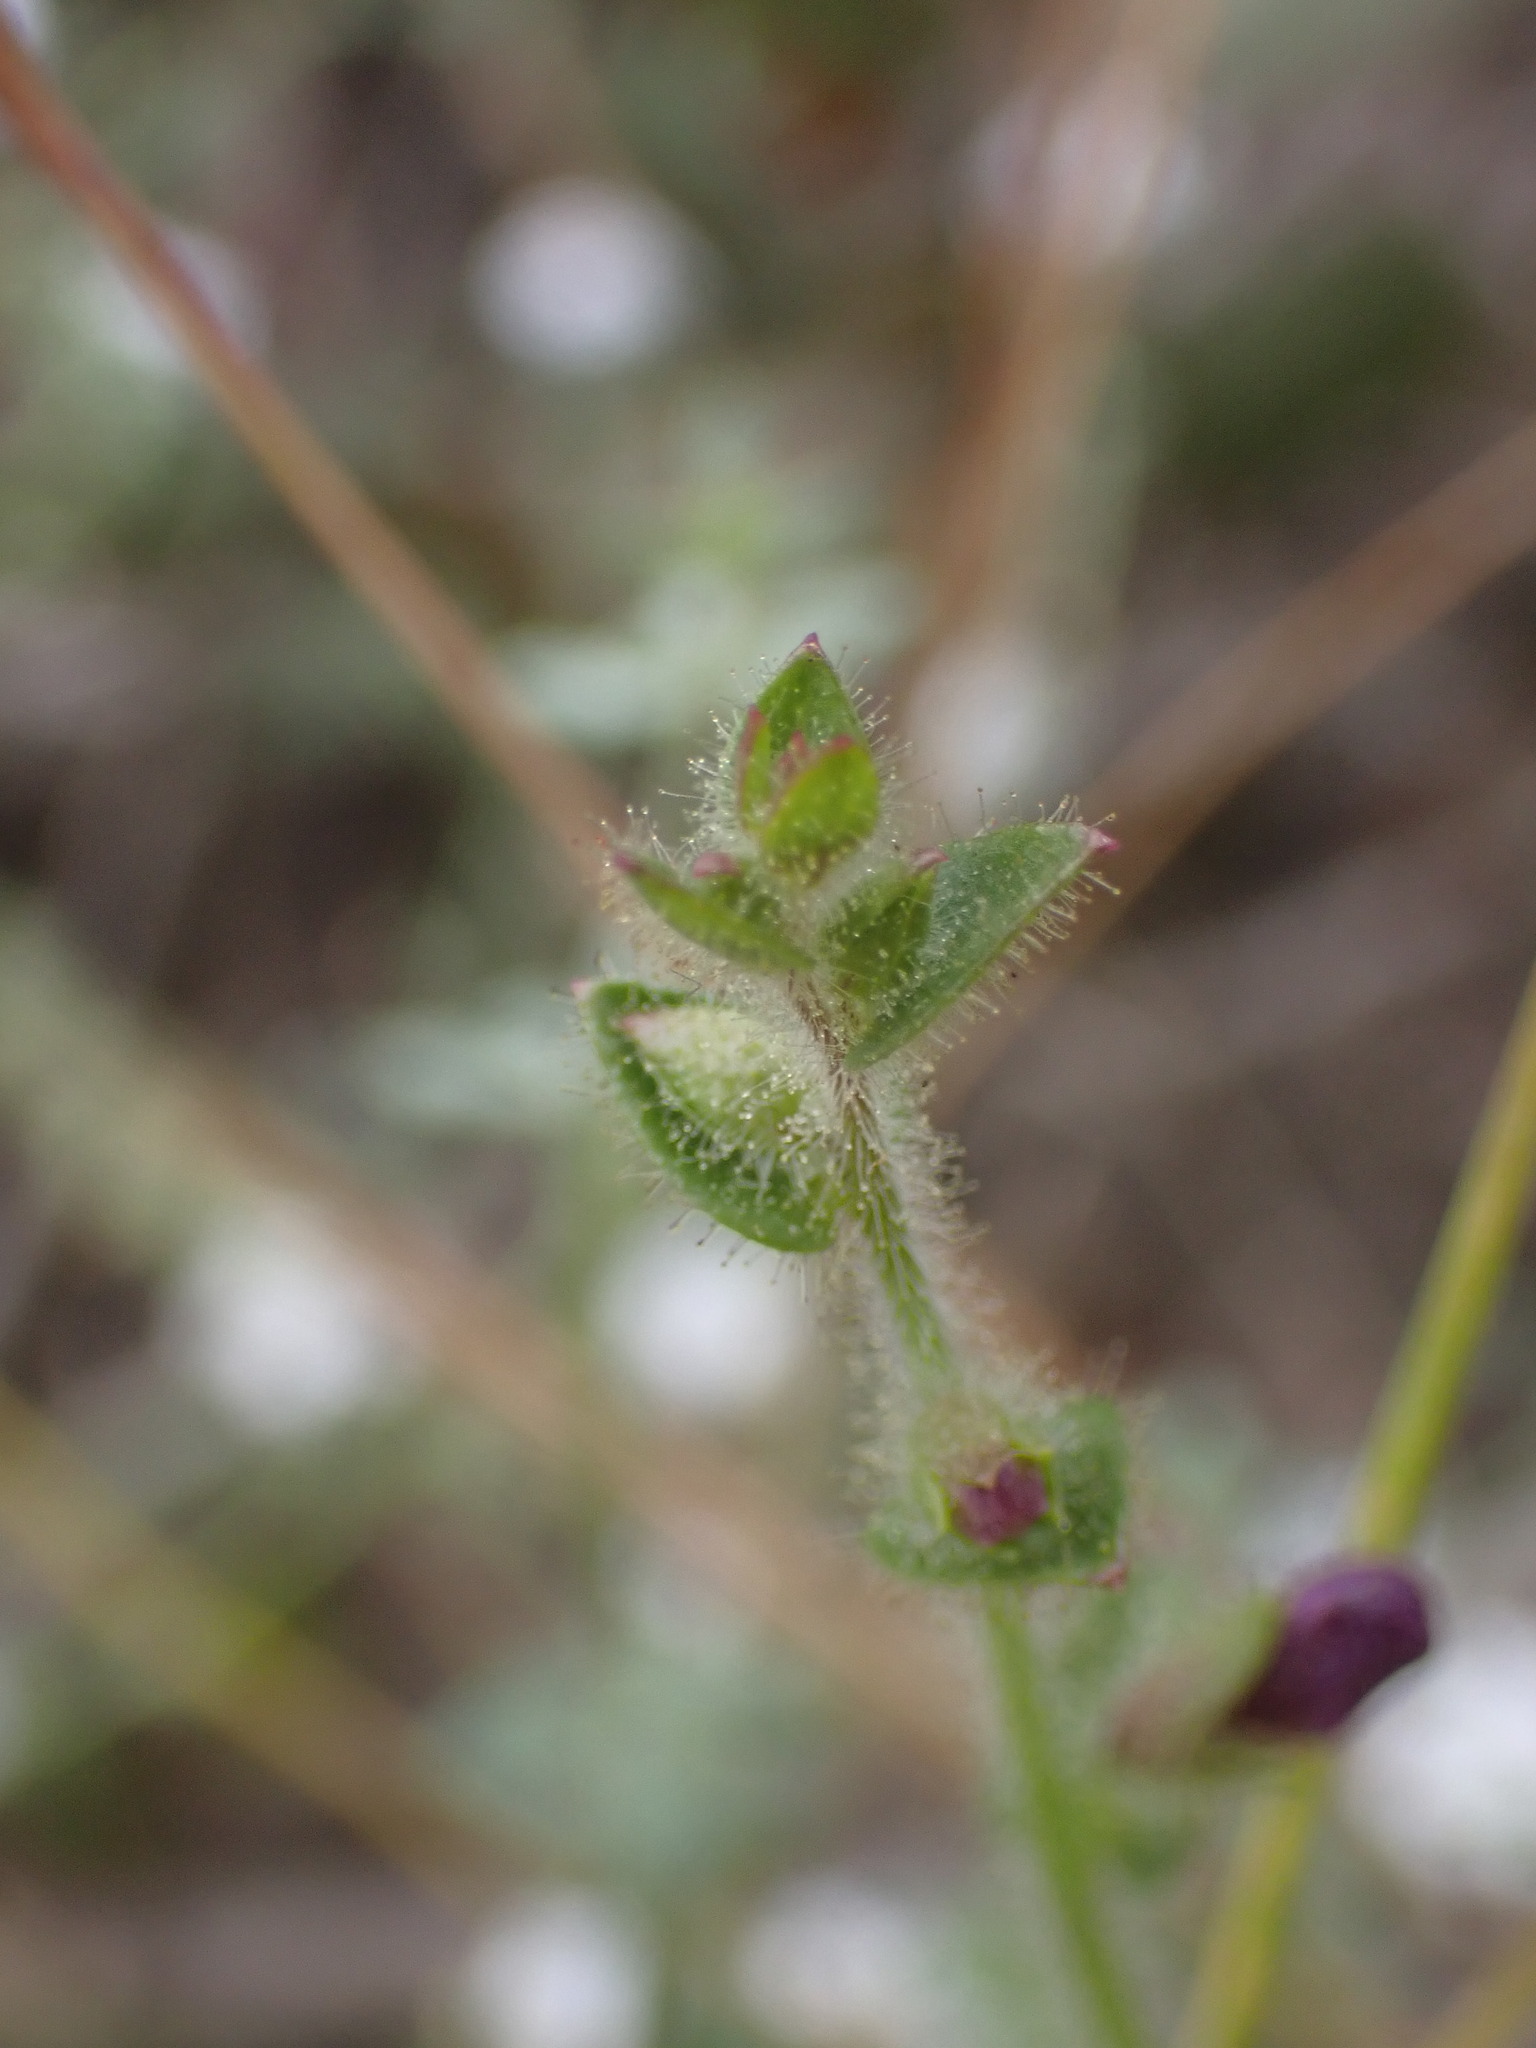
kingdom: Plantae
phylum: Tracheophyta
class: Magnoliopsida
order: Lamiales
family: Plantaginaceae
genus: Sairocarpus
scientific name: Sairocarpus nuttallianus
